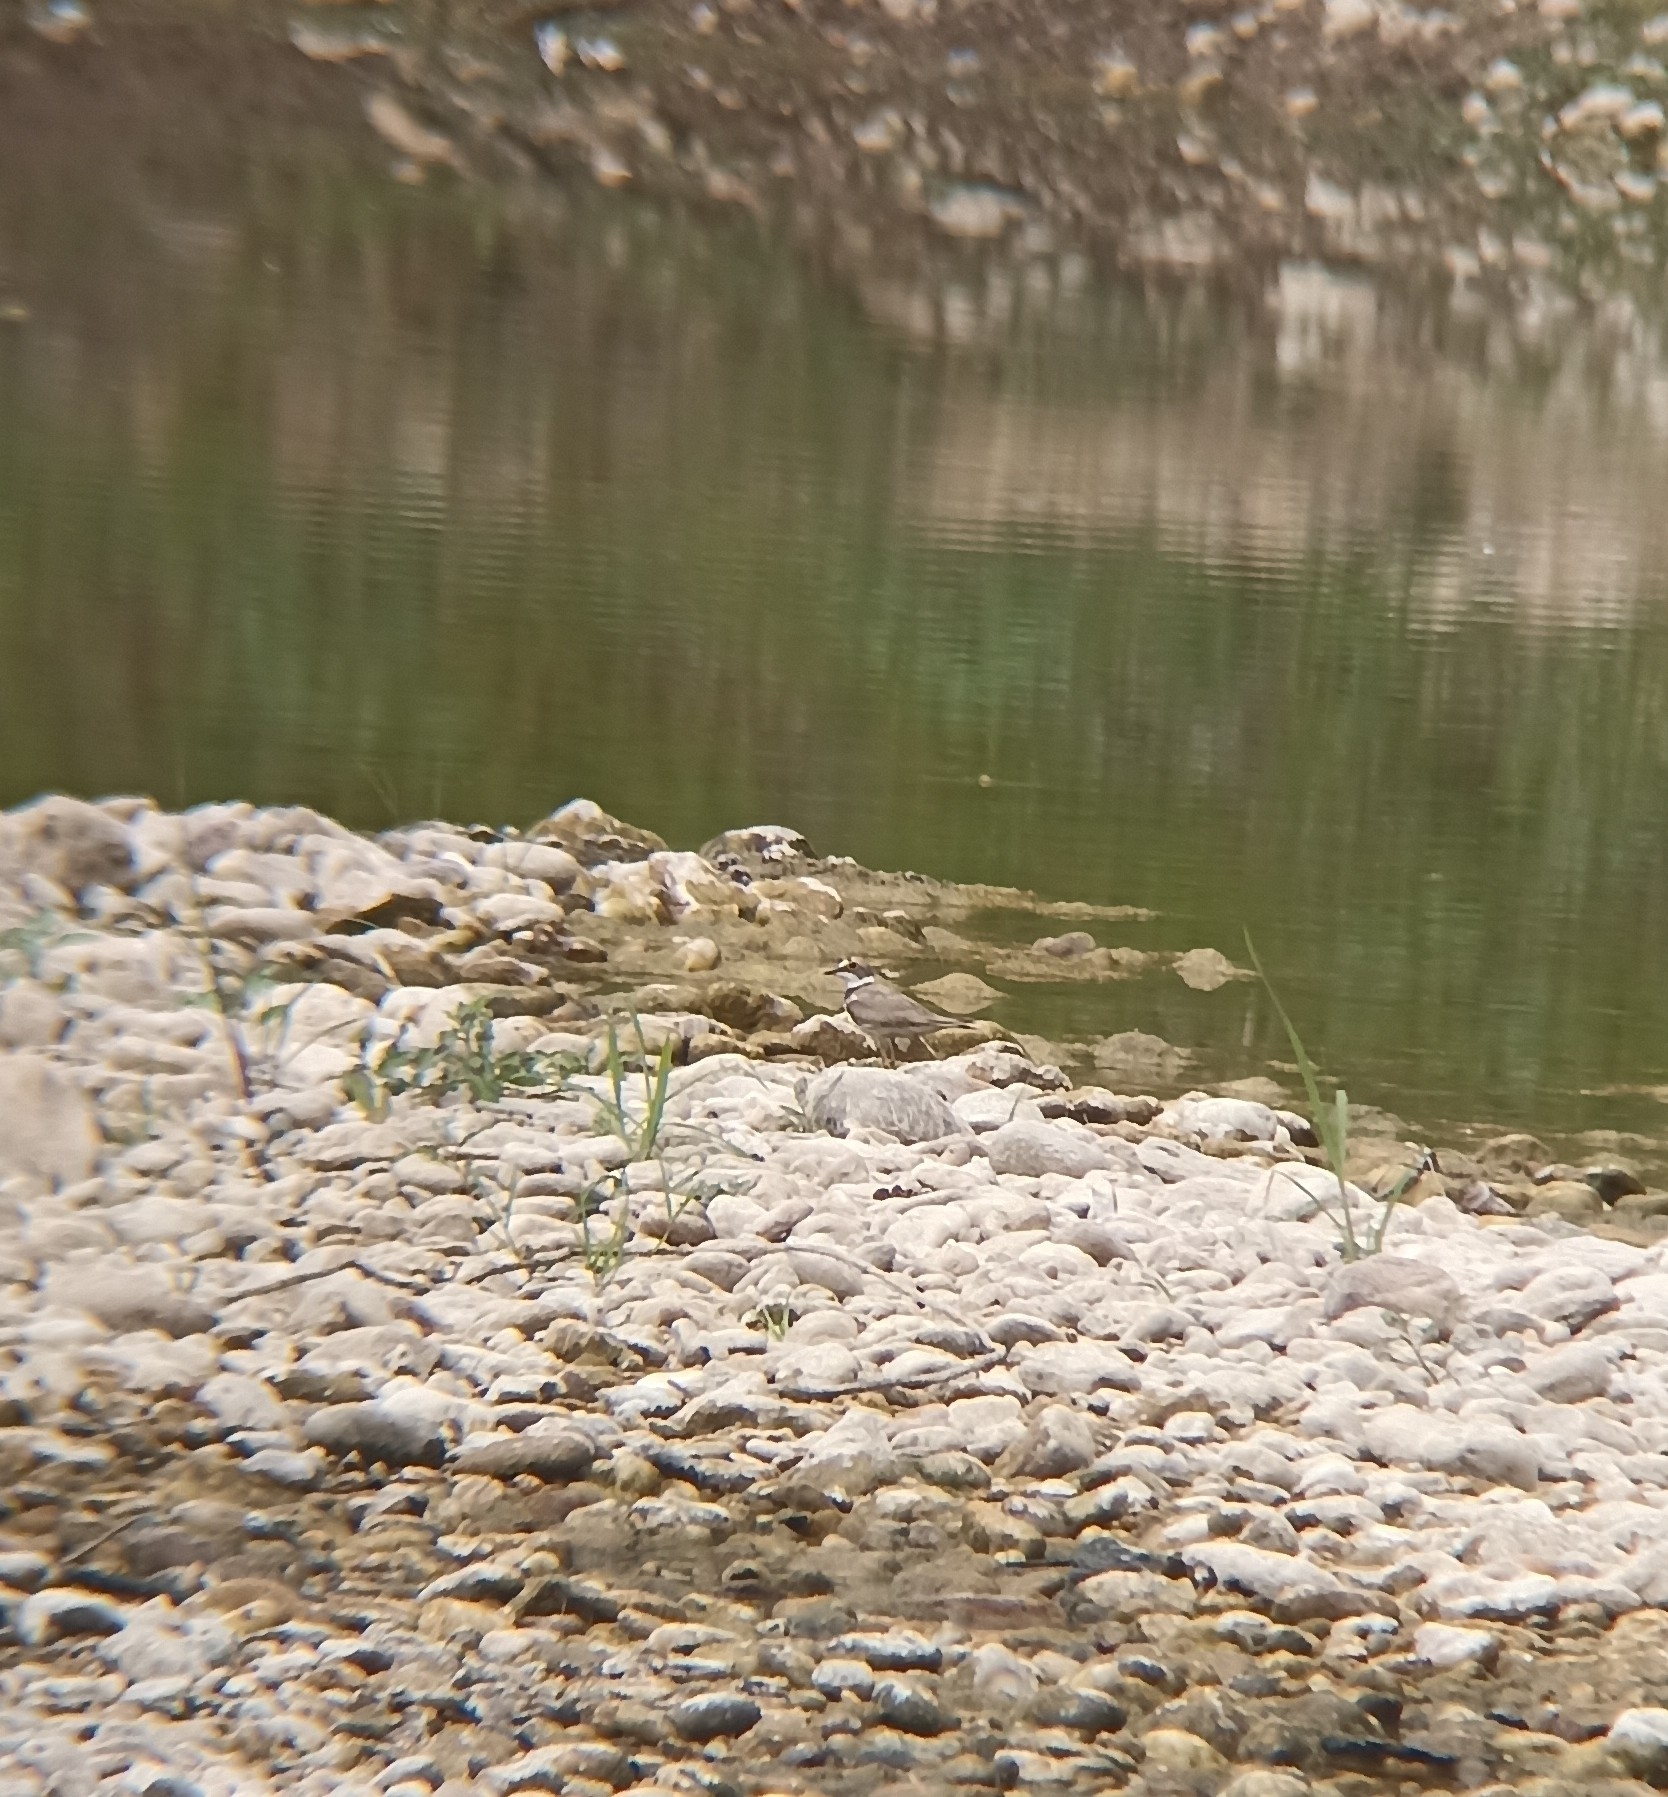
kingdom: Animalia
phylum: Chordata
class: Aves
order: Charadriiformes
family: Charadriidae
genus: Charadrius
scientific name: Charadrius dubius
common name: Little ringed plover
